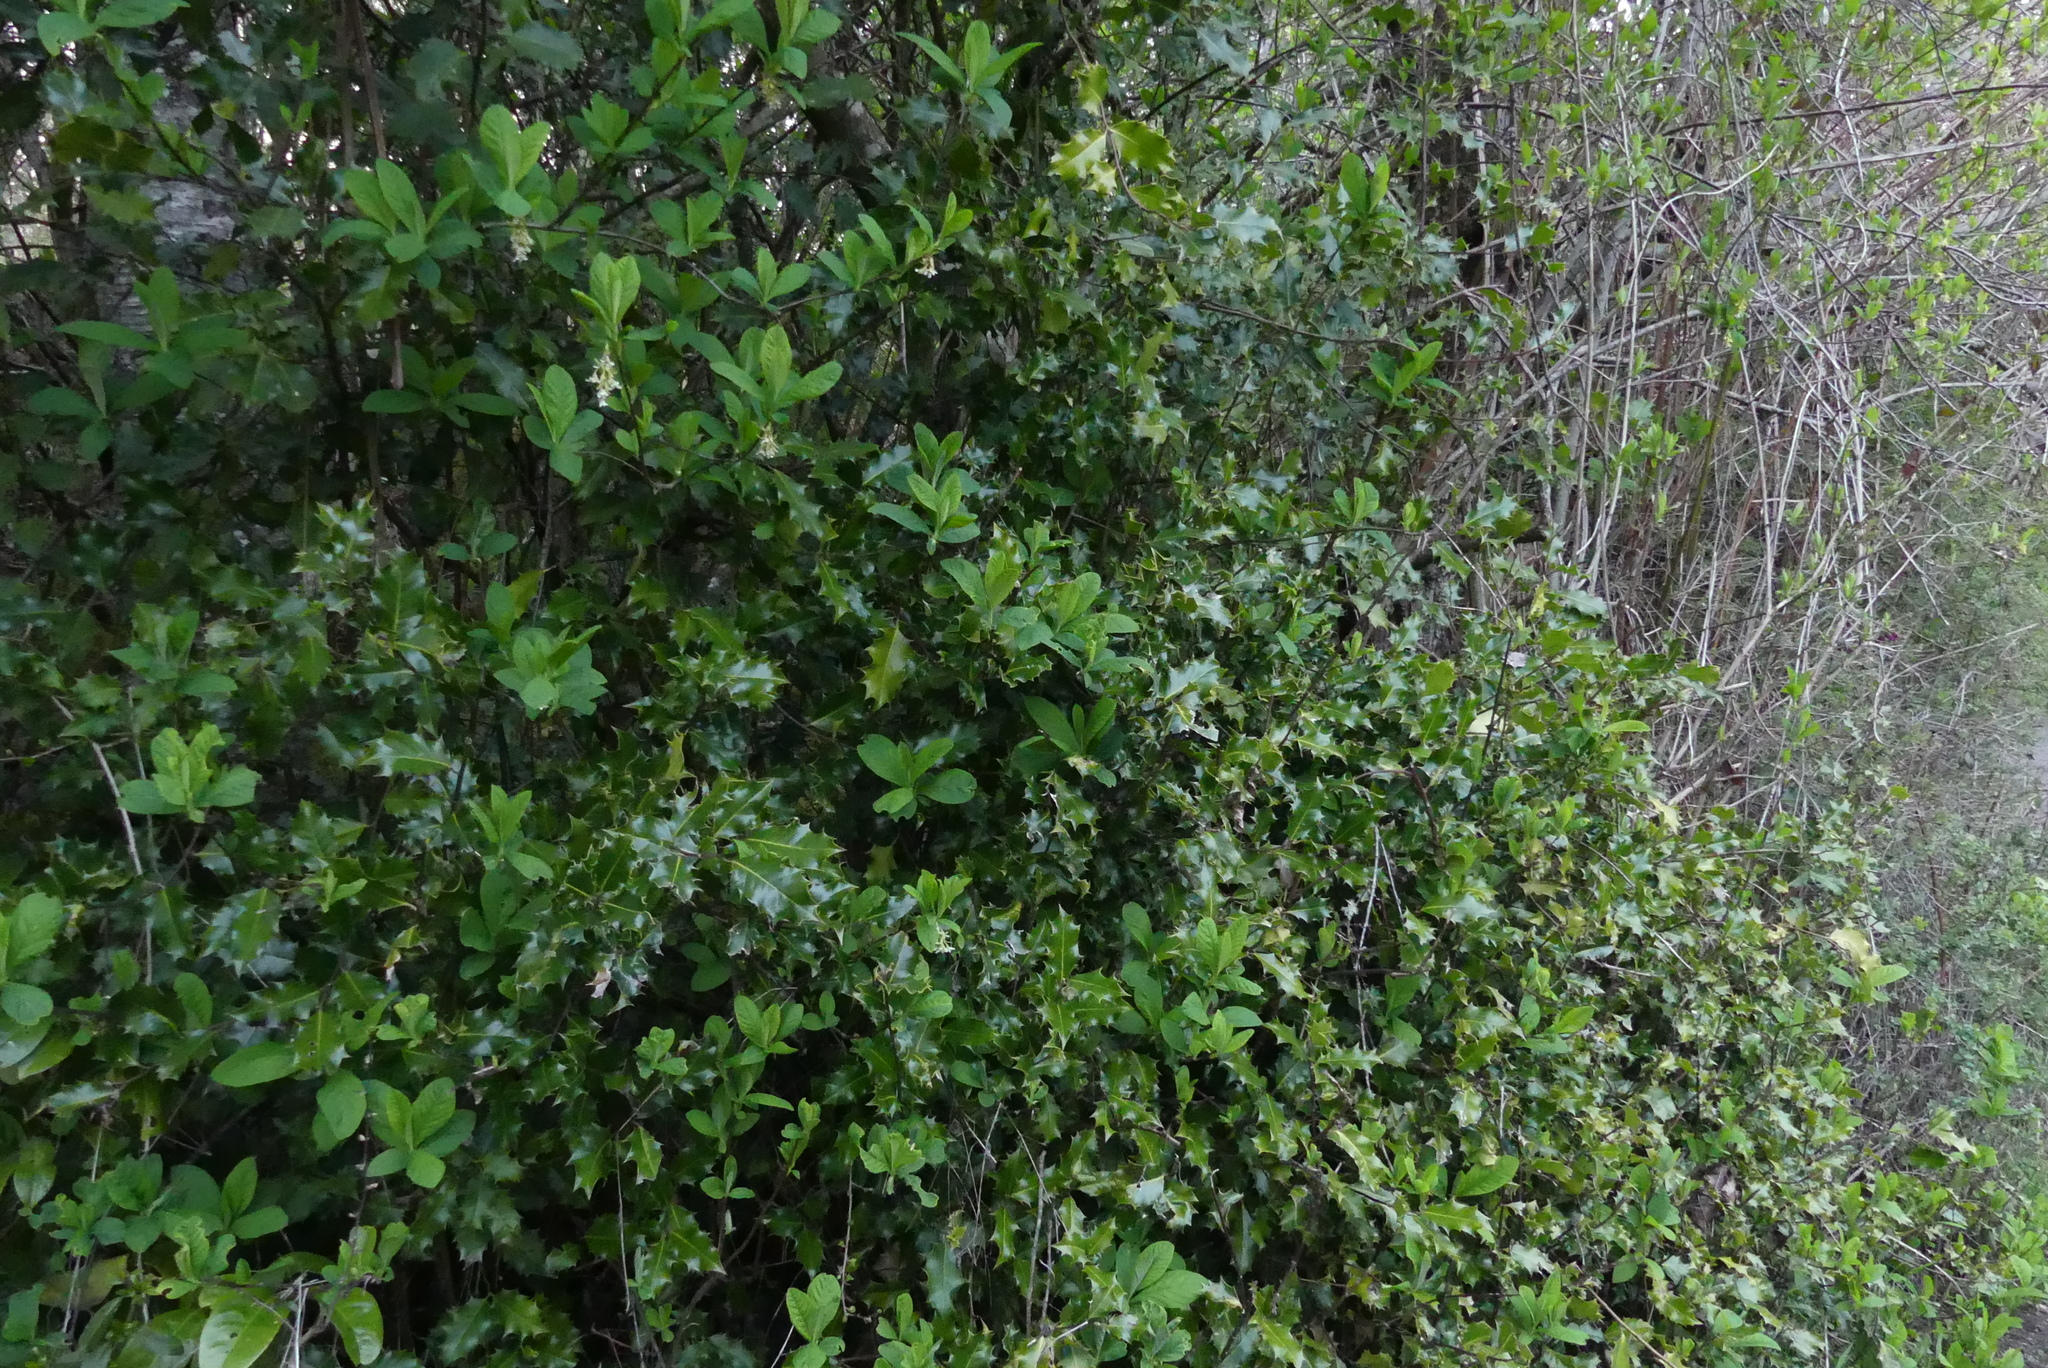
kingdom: Plantae
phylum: Tracheophyta
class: Magnoliopsida
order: Aquifoliales
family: Aquifoliaceae
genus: Ilex
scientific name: Ilex aquifolium
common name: English holly
